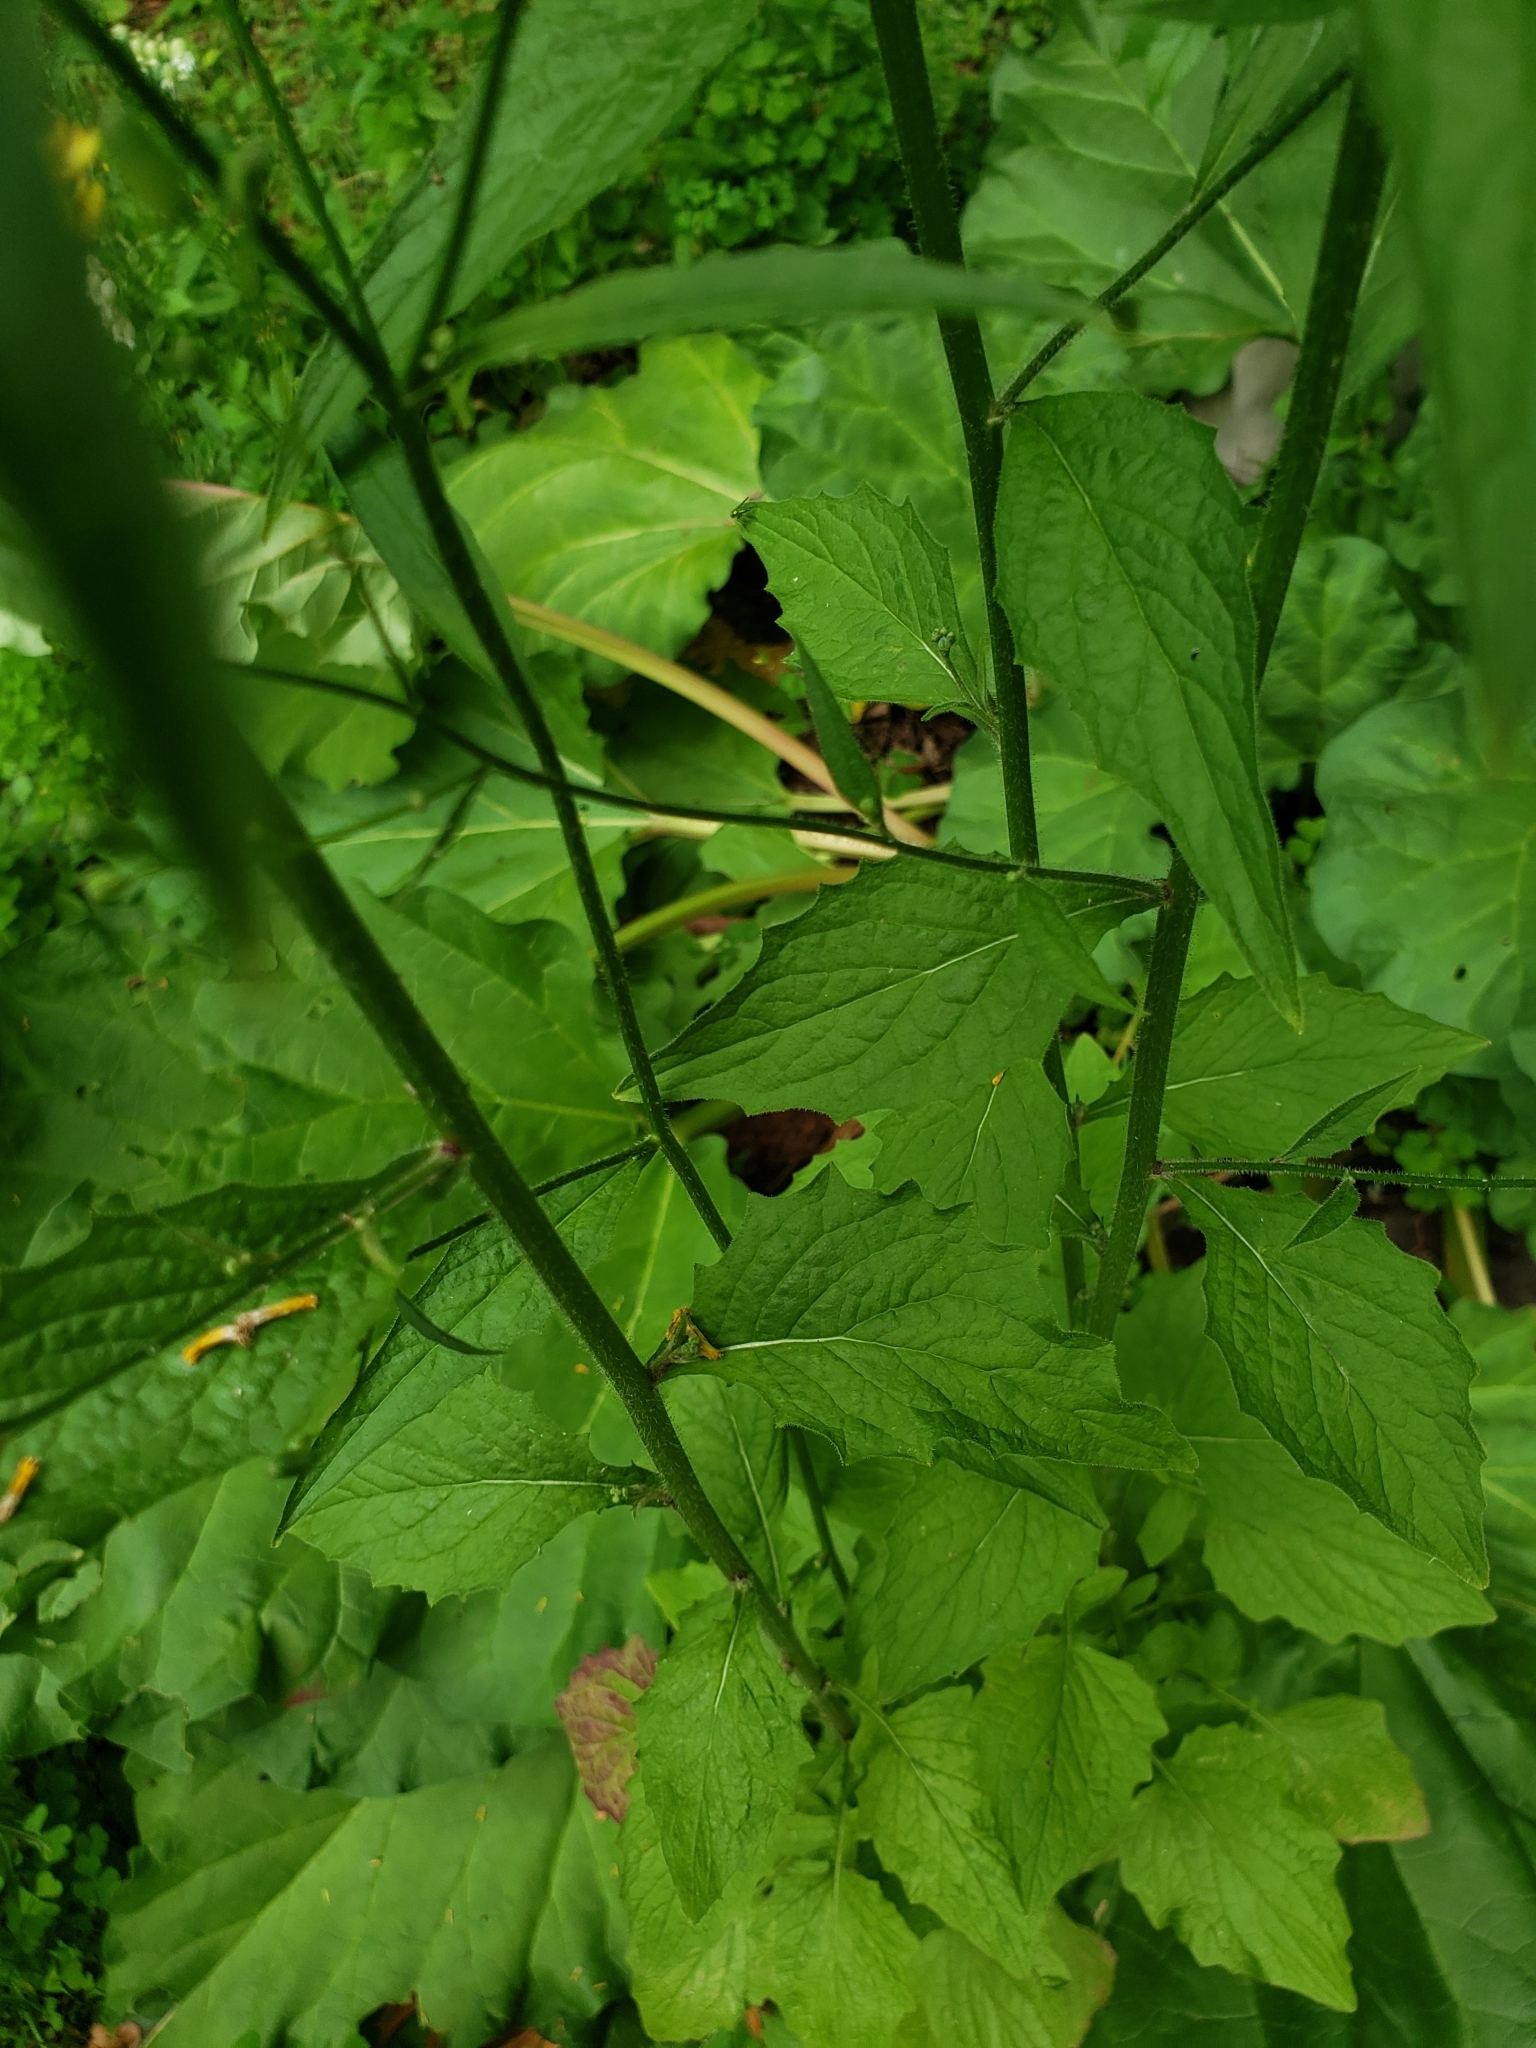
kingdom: Plantae
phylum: Tracheophyta
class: Magnoliopsida
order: Asterales
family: Asteraceae
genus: Lapsana
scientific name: Lapsana communis
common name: Nipplewort
